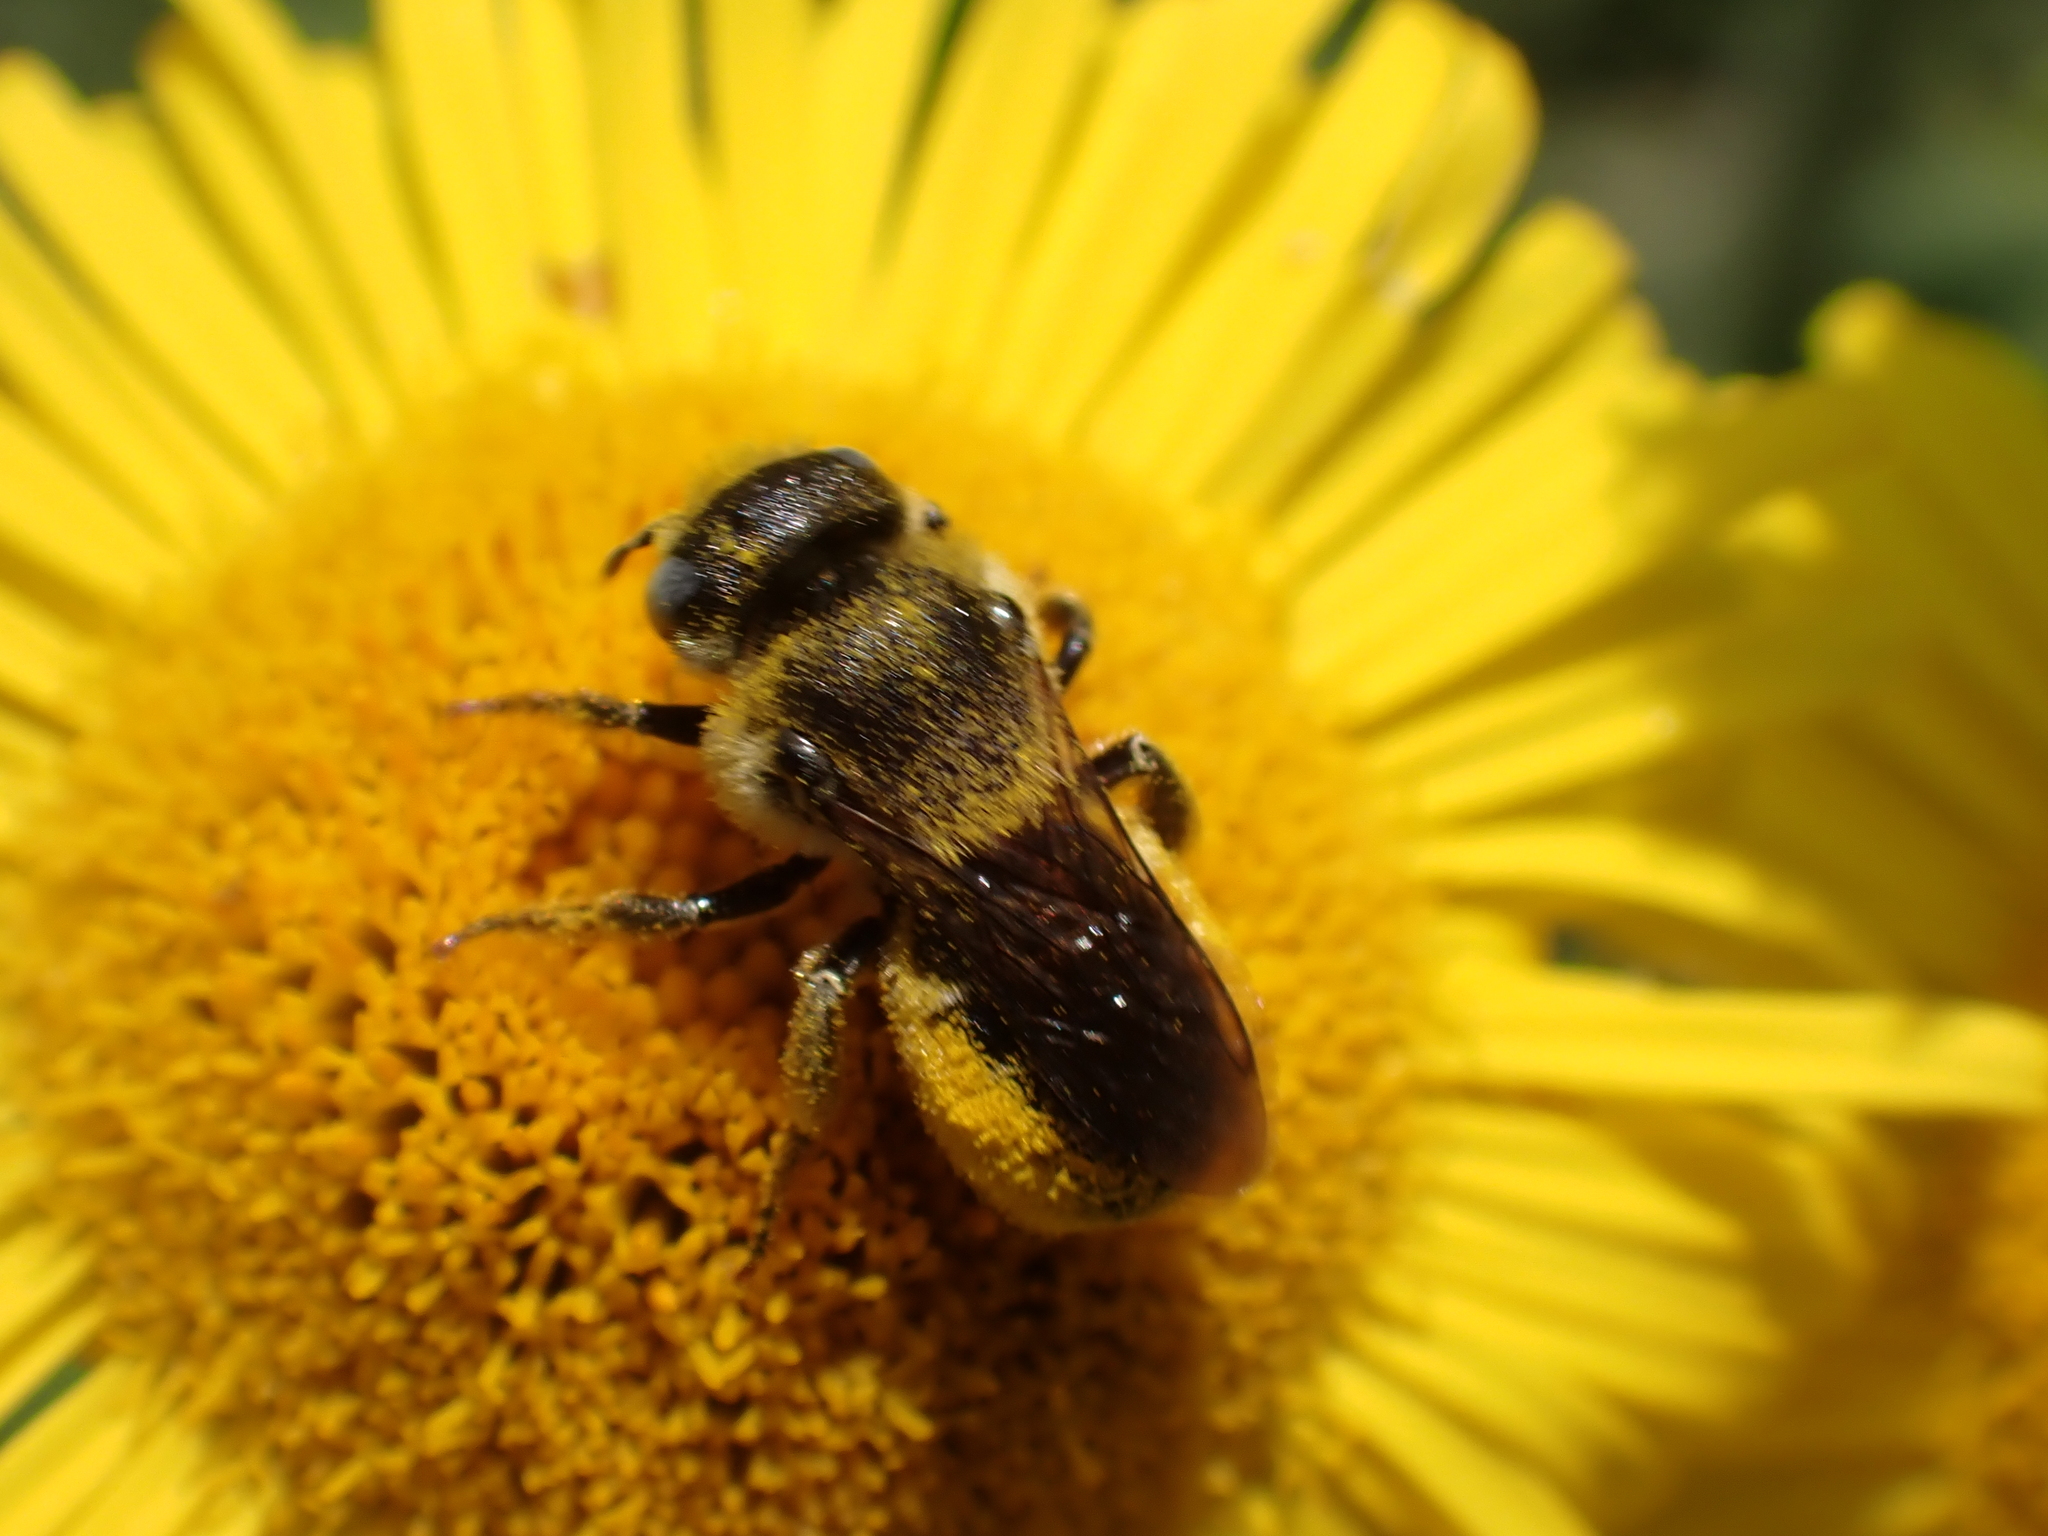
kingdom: Animalia
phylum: Arthropoda
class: Insecta
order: Hymenoptera
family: Megachilidae
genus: Osmia
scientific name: Osmia spinulosa
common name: Spined mason bee
